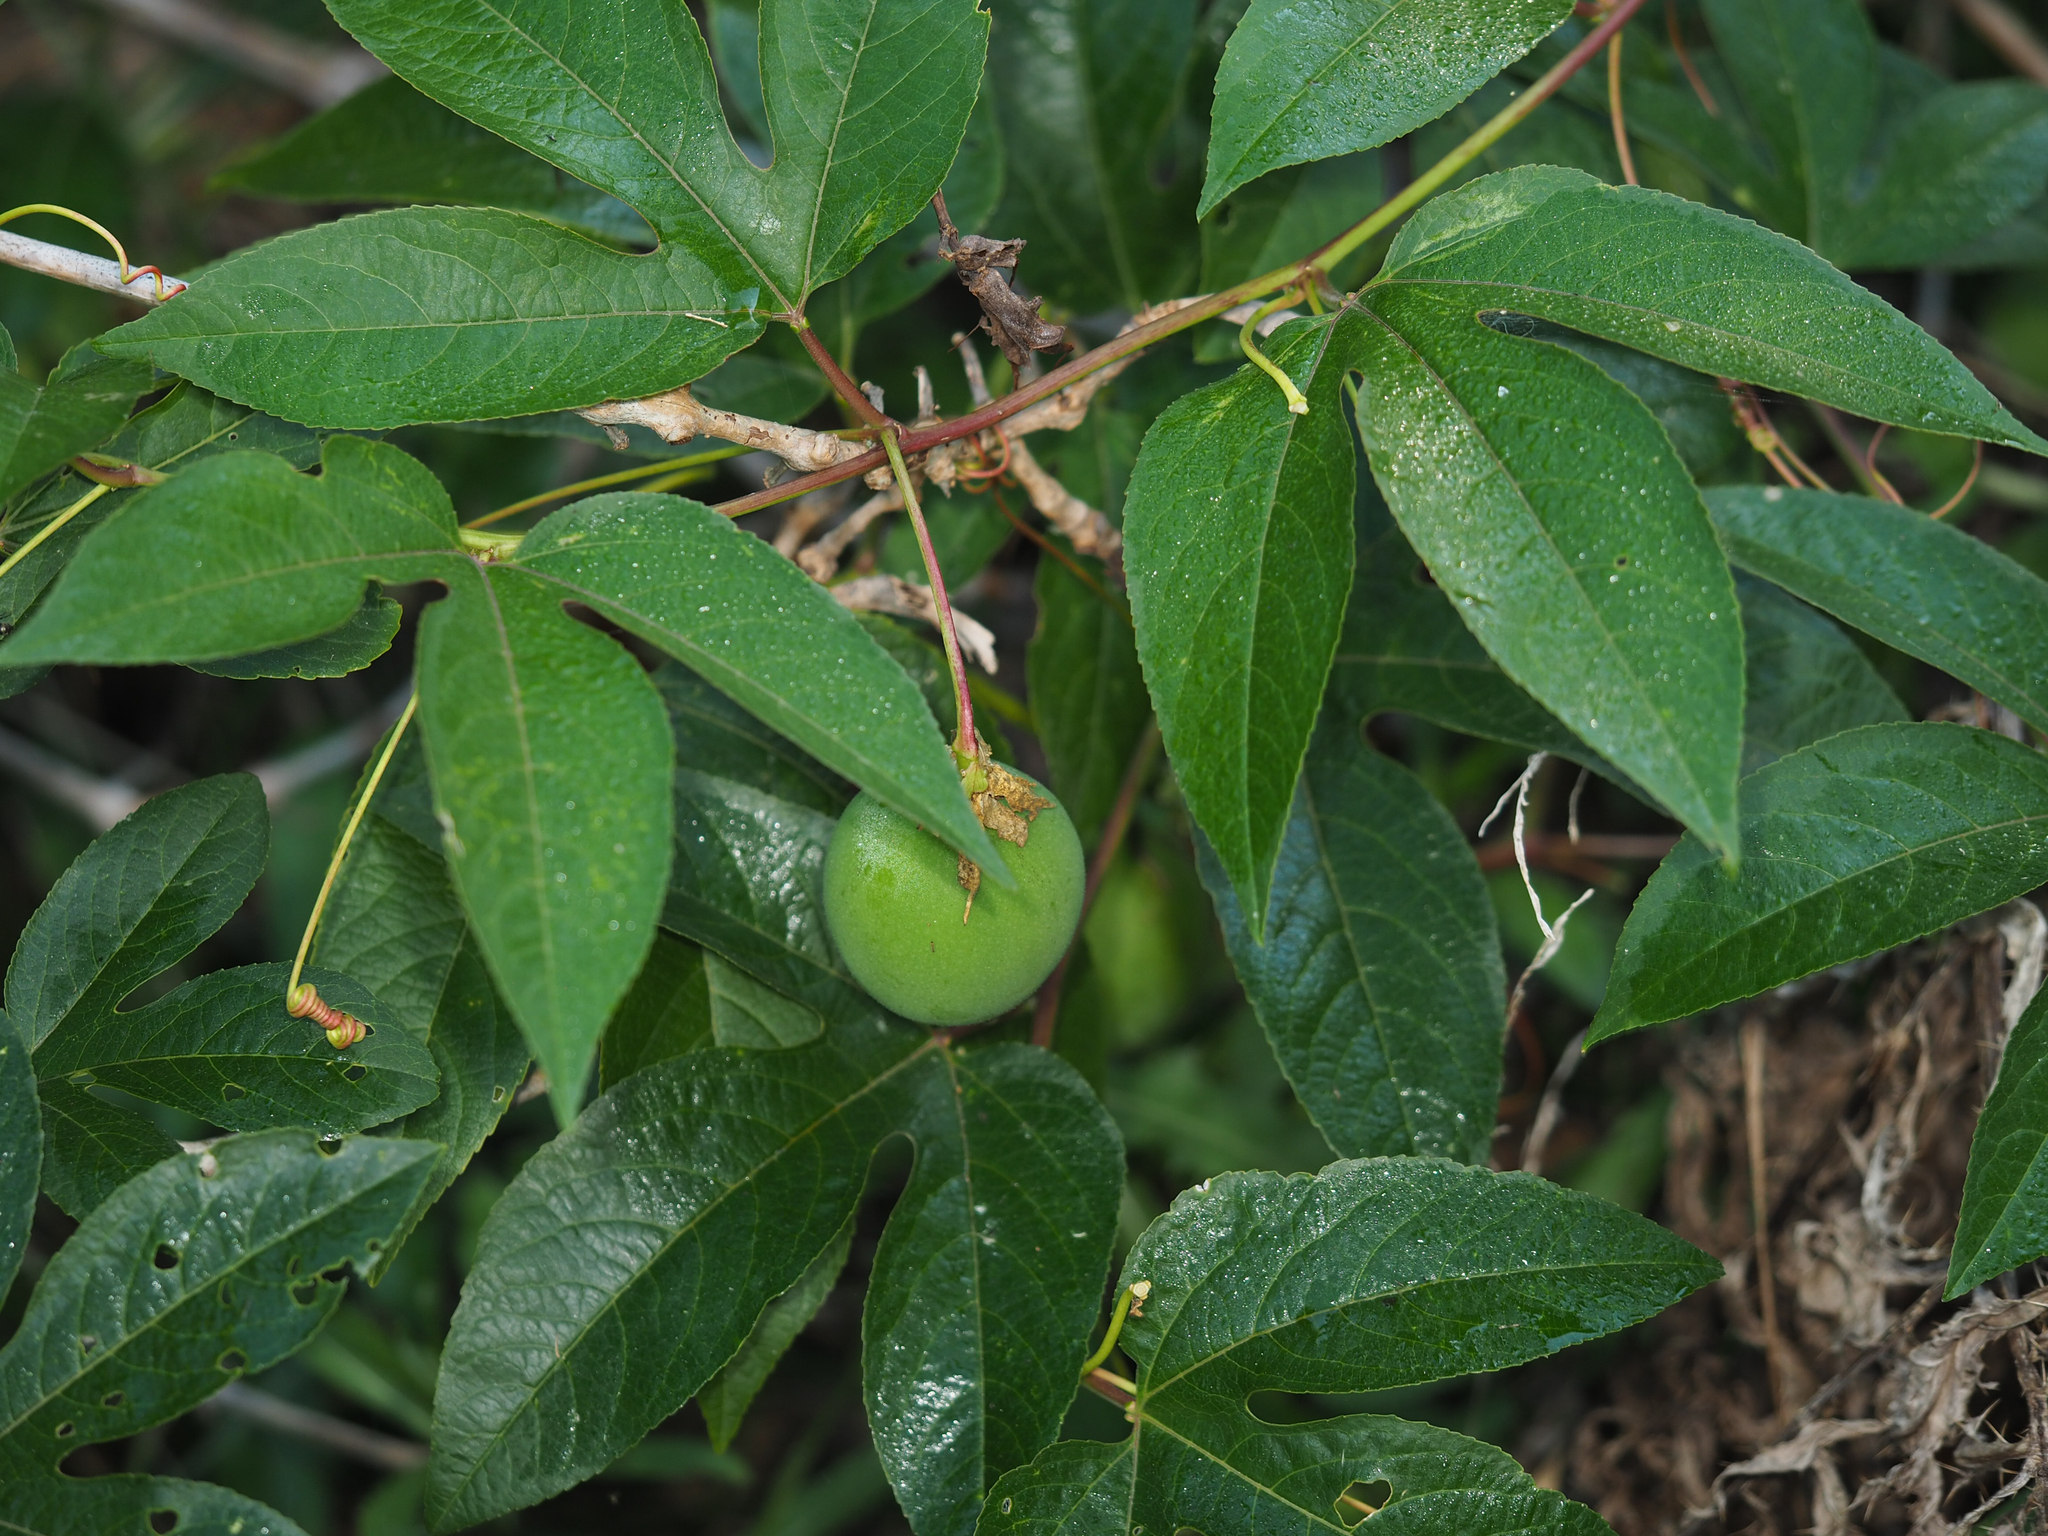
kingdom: Plantae
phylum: Tracheophyta
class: Magnoliopsida
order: Malpighiales
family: Passifloraceae
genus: Passiflora
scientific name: Passiflora incarnata
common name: Apricot-vine
